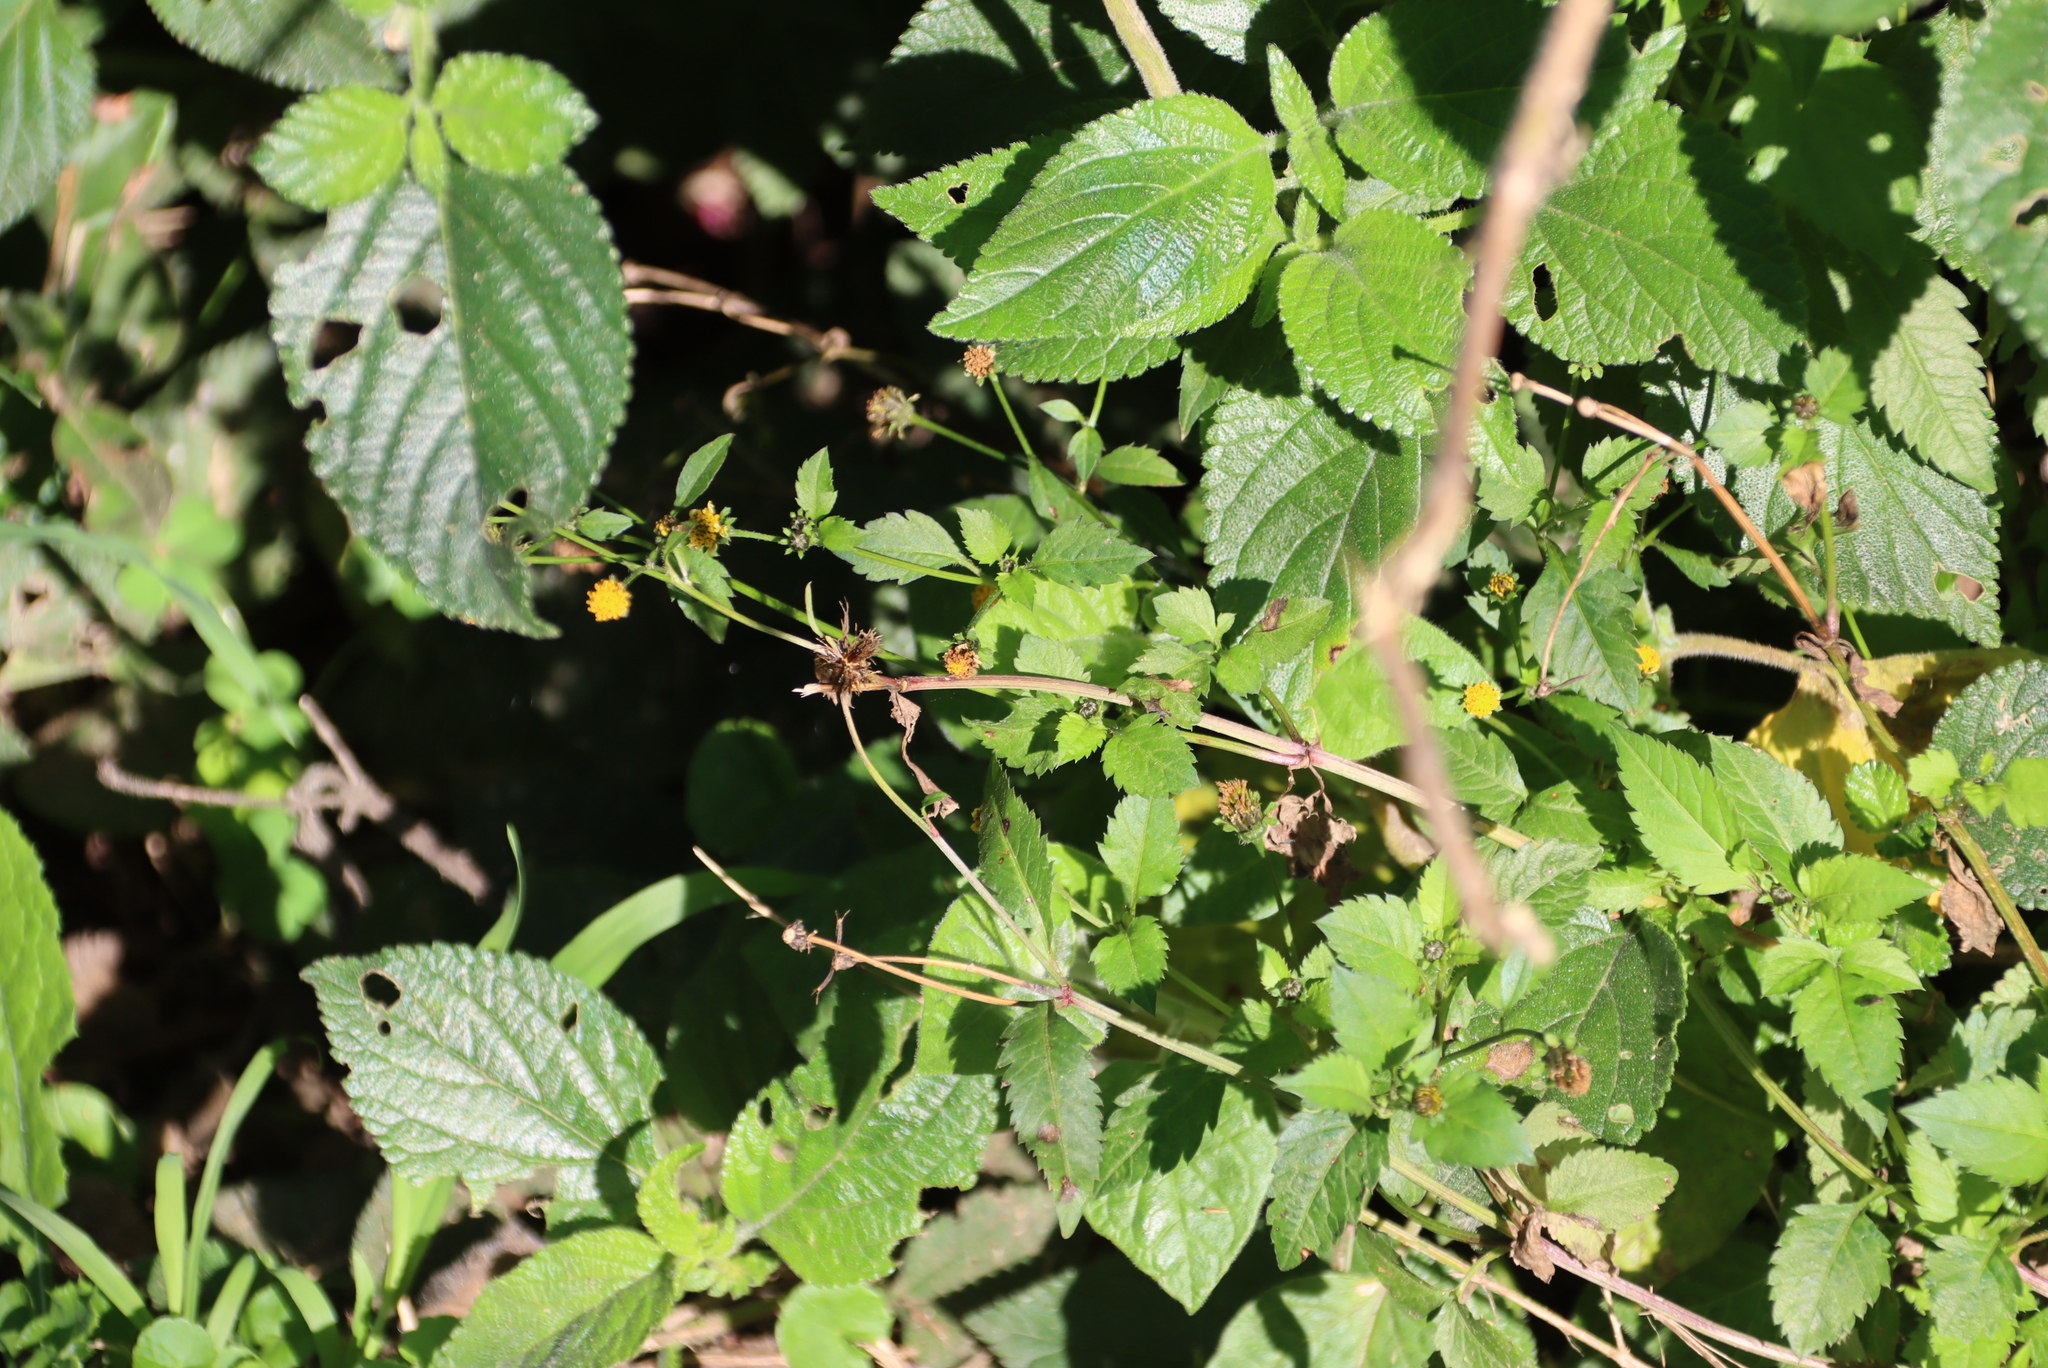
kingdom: Plantae
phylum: Tracheophyta
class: Magnoliopsida
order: Asterales
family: Asteraceae
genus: Bidens
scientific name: Bidens pilosa
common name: Black-jack
